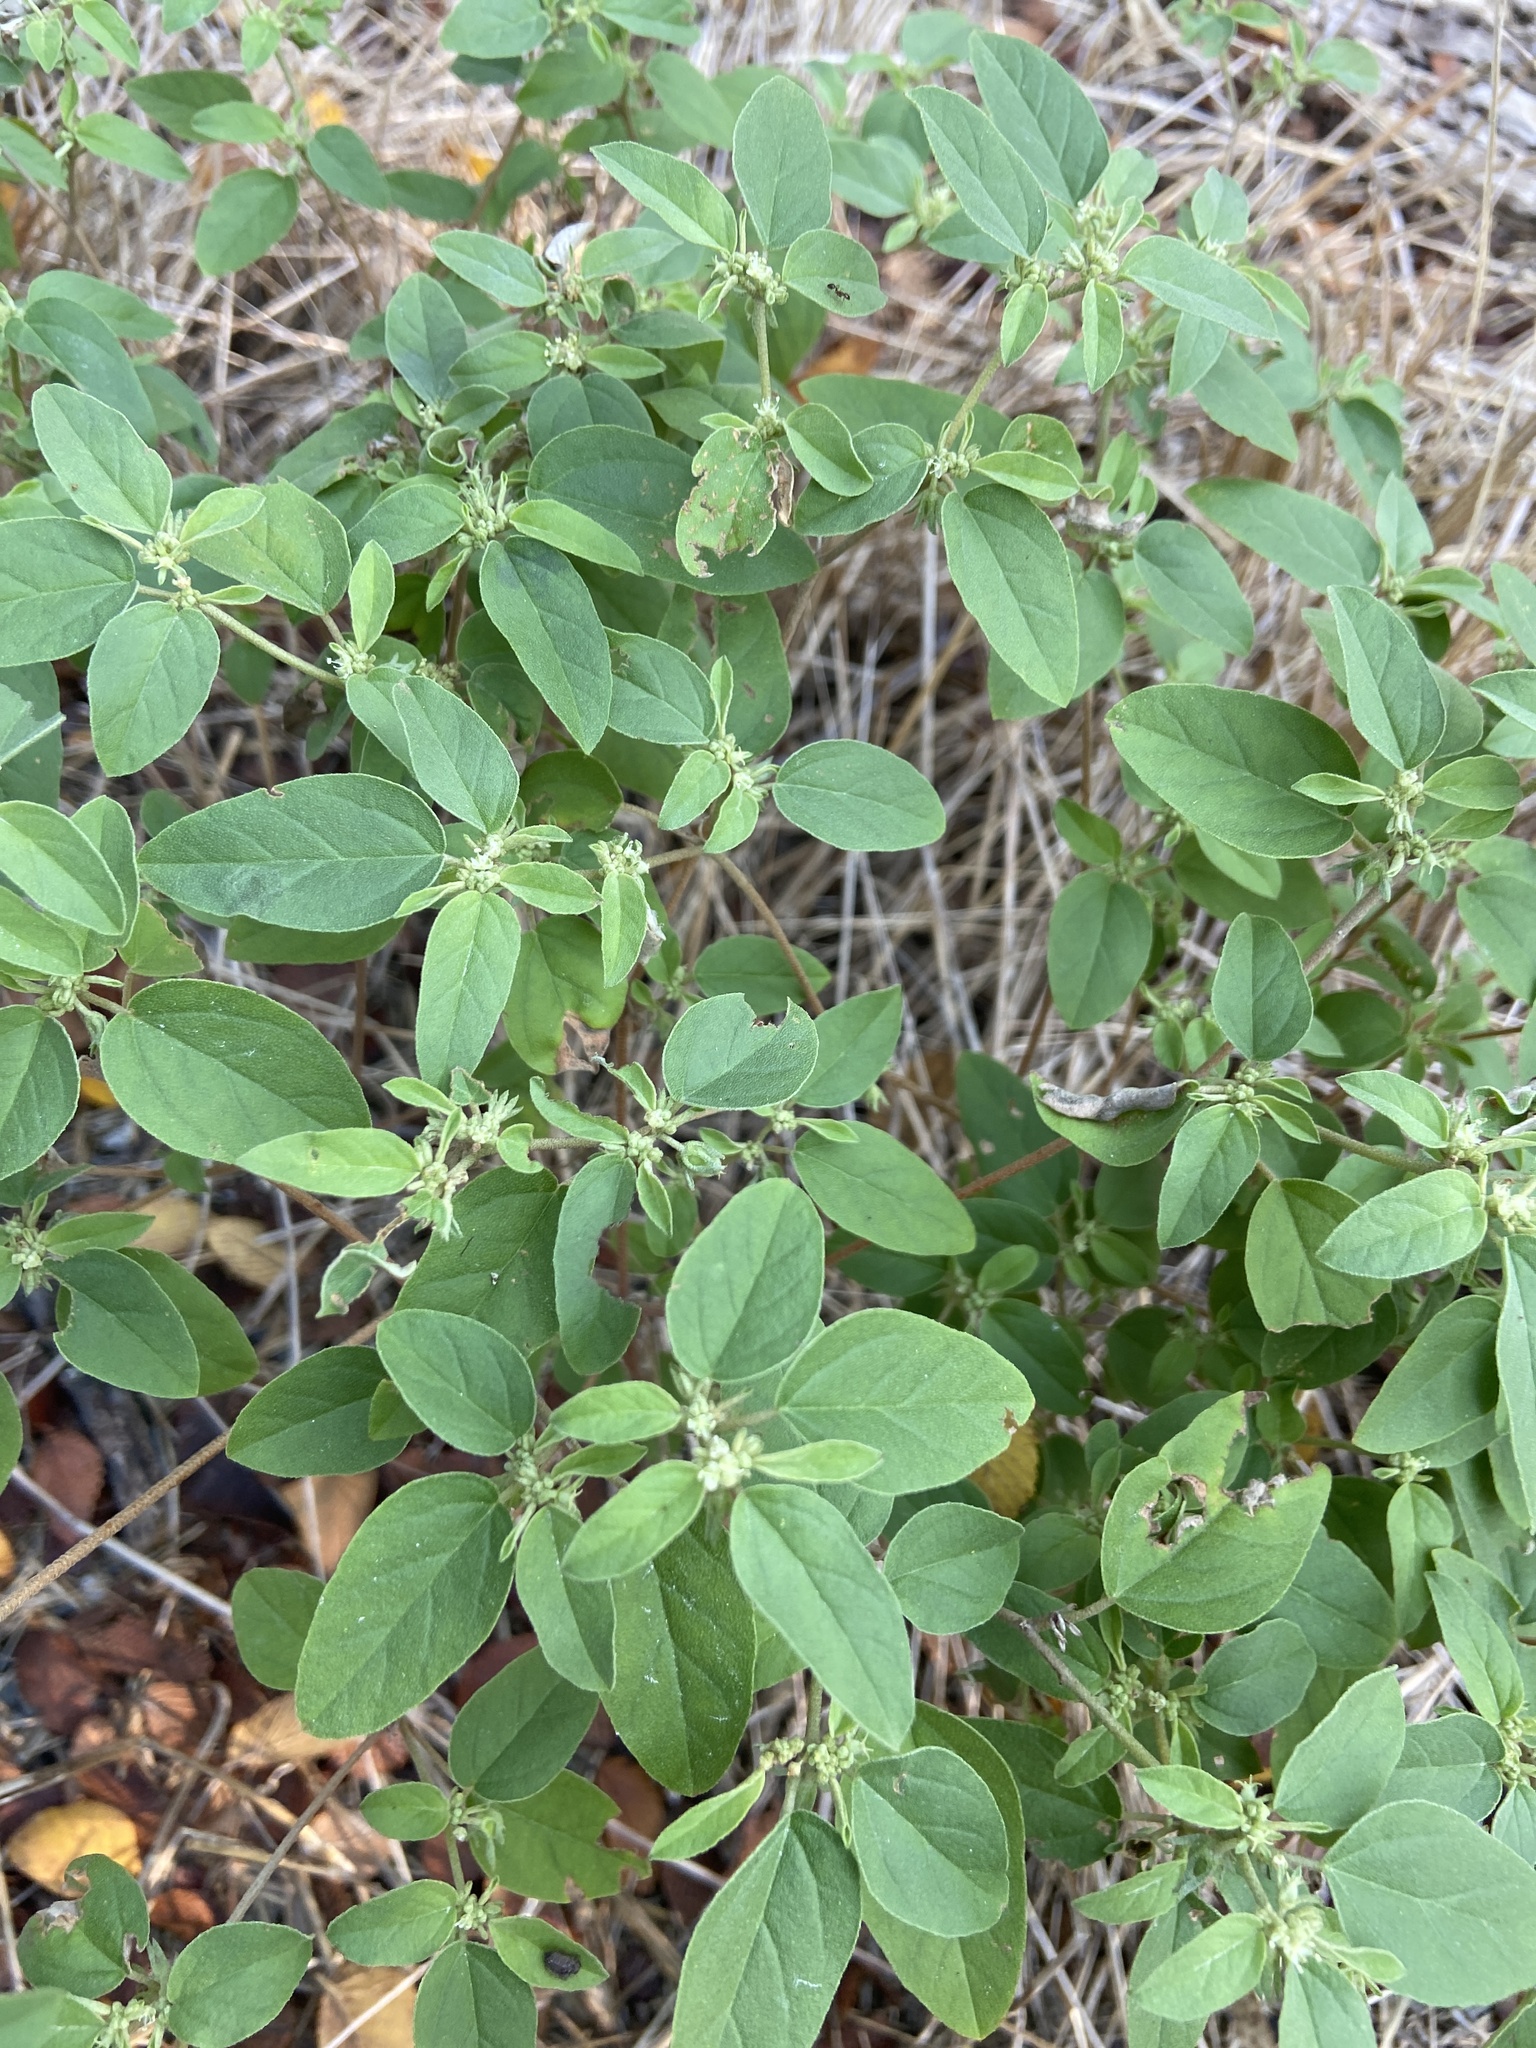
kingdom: Plantae
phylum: Tracheophyta
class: Magnoliopsida
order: Malpighiales
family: Euphorbiaceae
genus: Croton
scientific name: Croton monanthogynus
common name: One-seed croton
